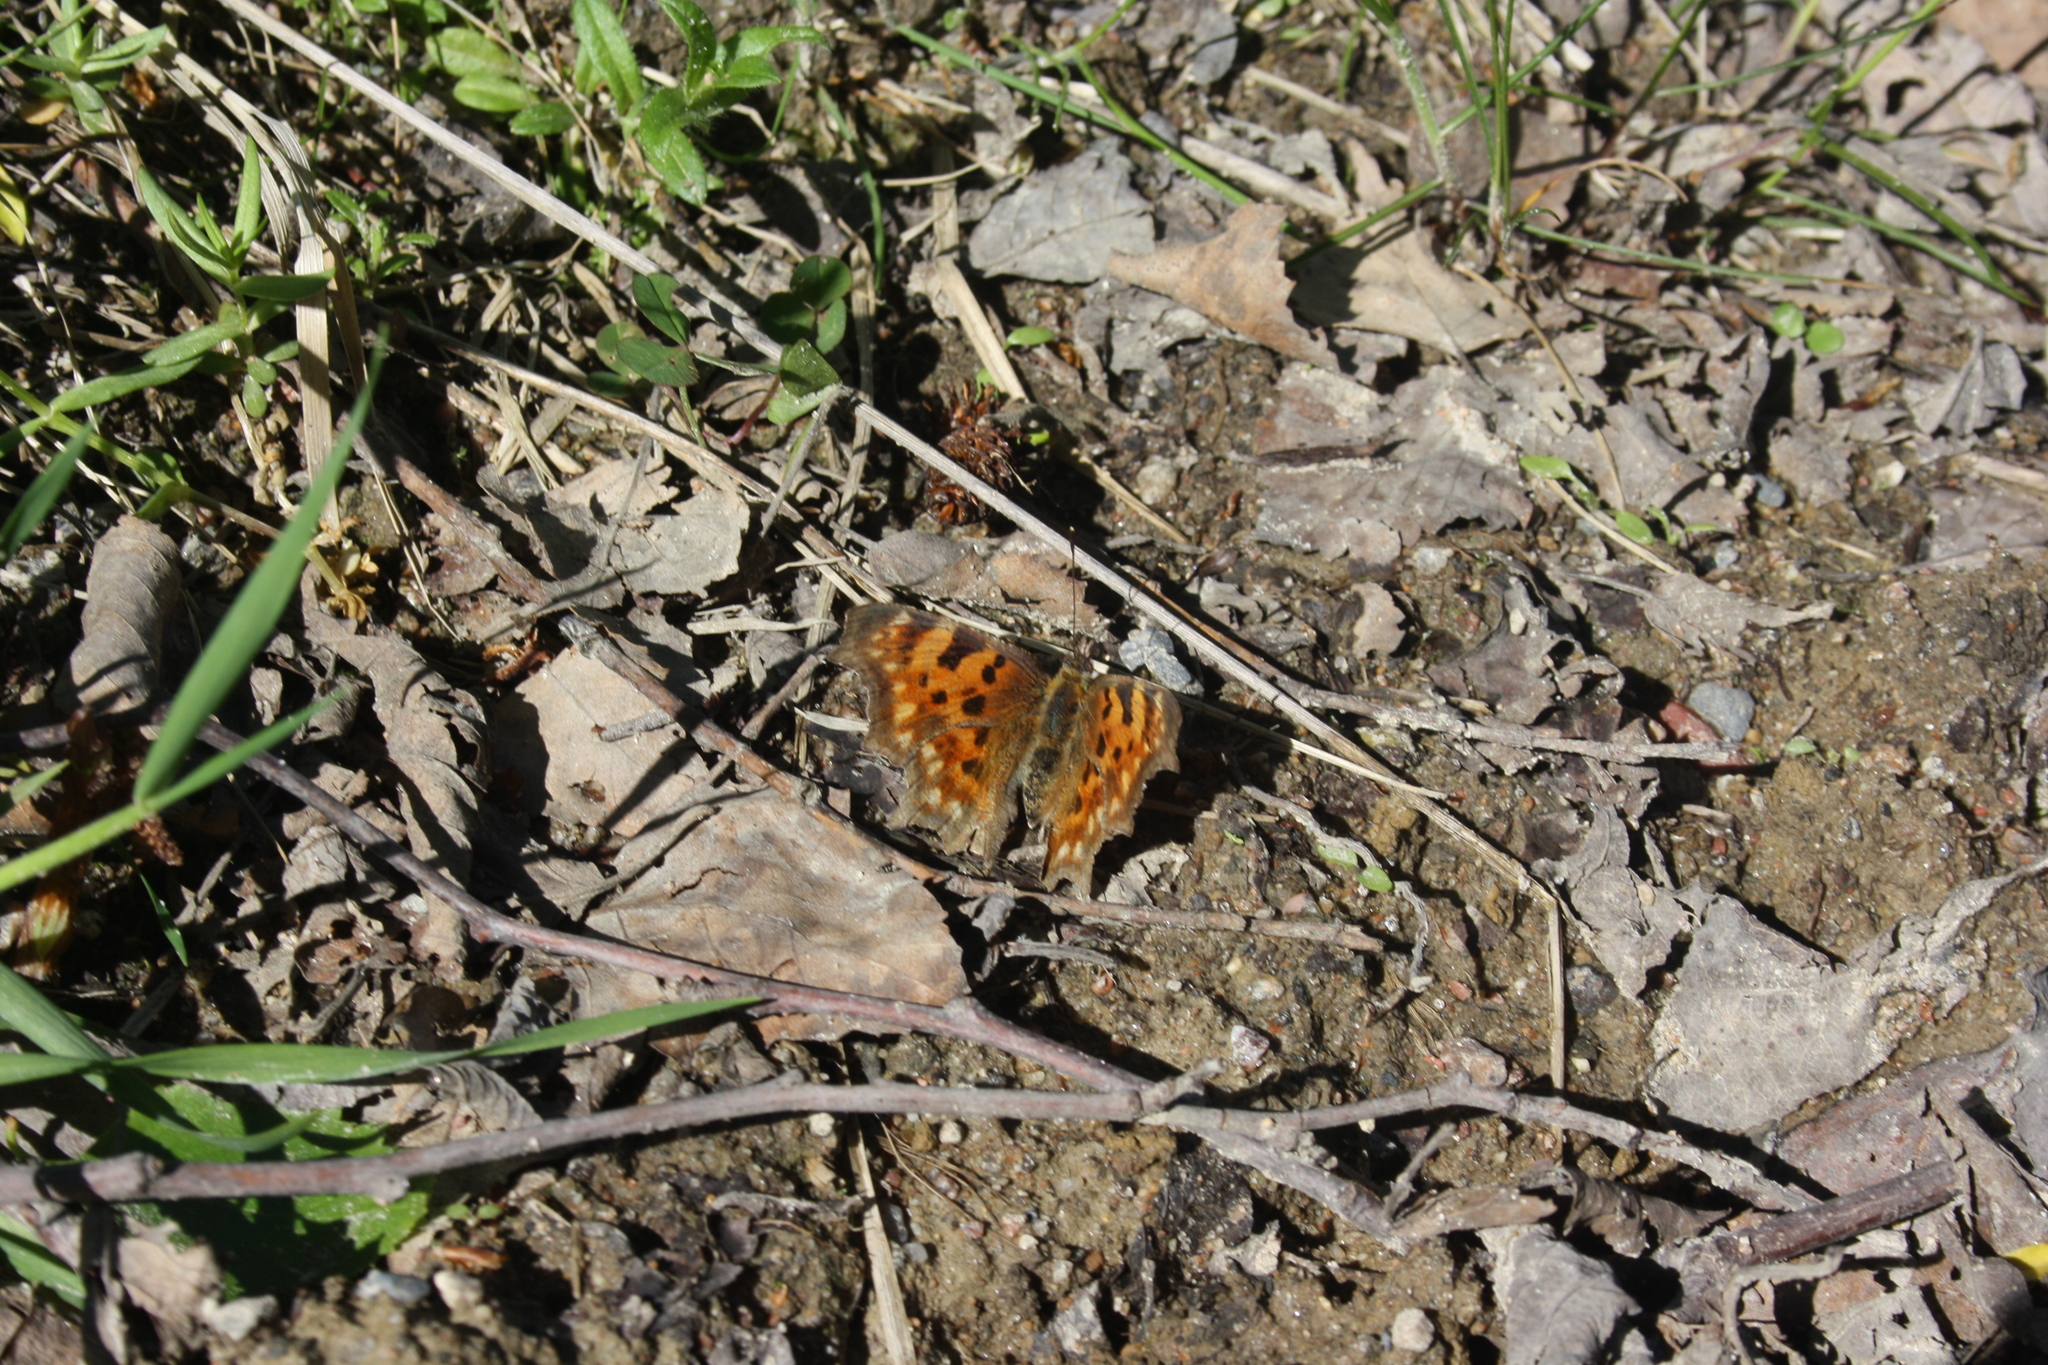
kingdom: Animalia
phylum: Arthropoda
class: Insecta
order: Lepidoptera
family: Nymphalidae
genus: Polygonia
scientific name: Polygonia c-album
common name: Comma
